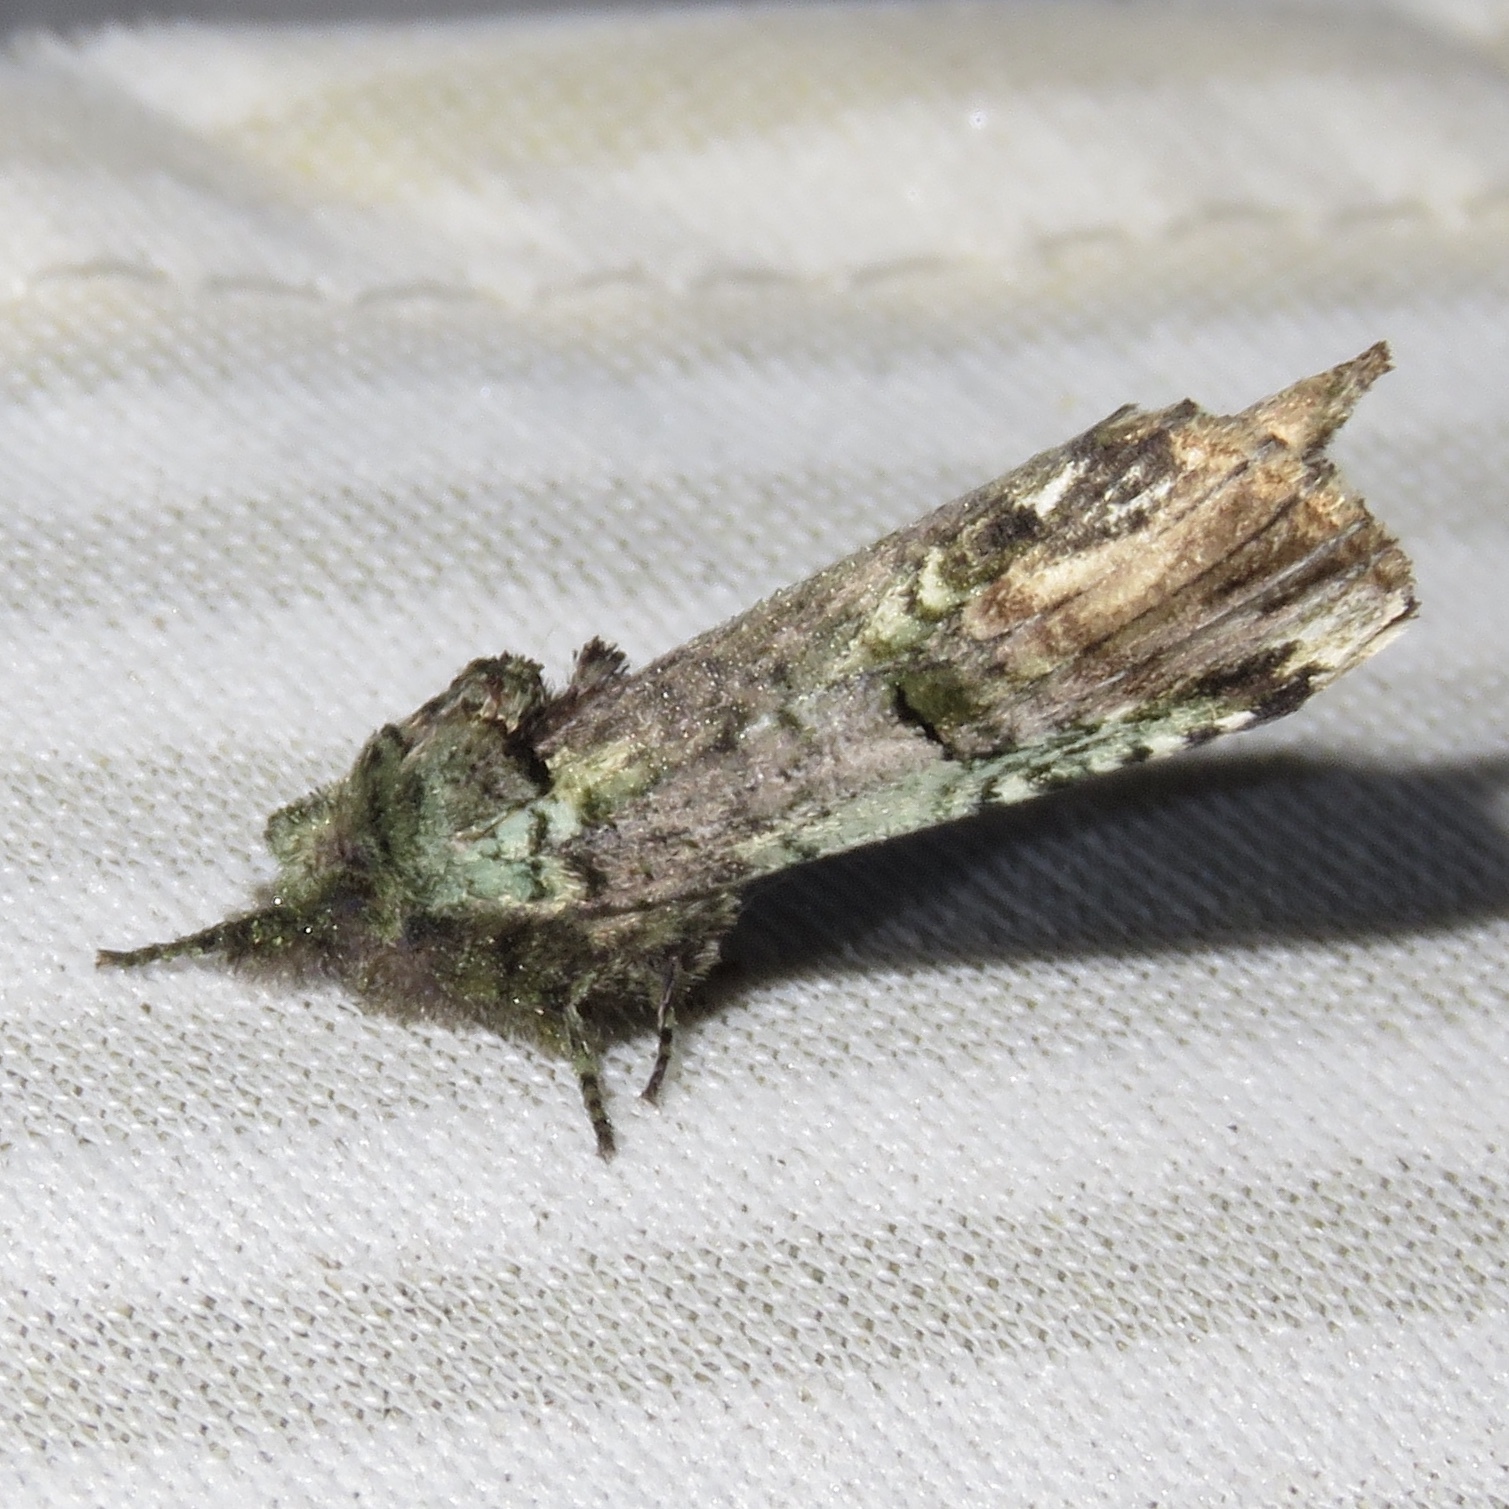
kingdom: Animalia
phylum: Arthropoda
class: Insecta
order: Lepidoptera
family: Notodontidae
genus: Schizura
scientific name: Schizura
